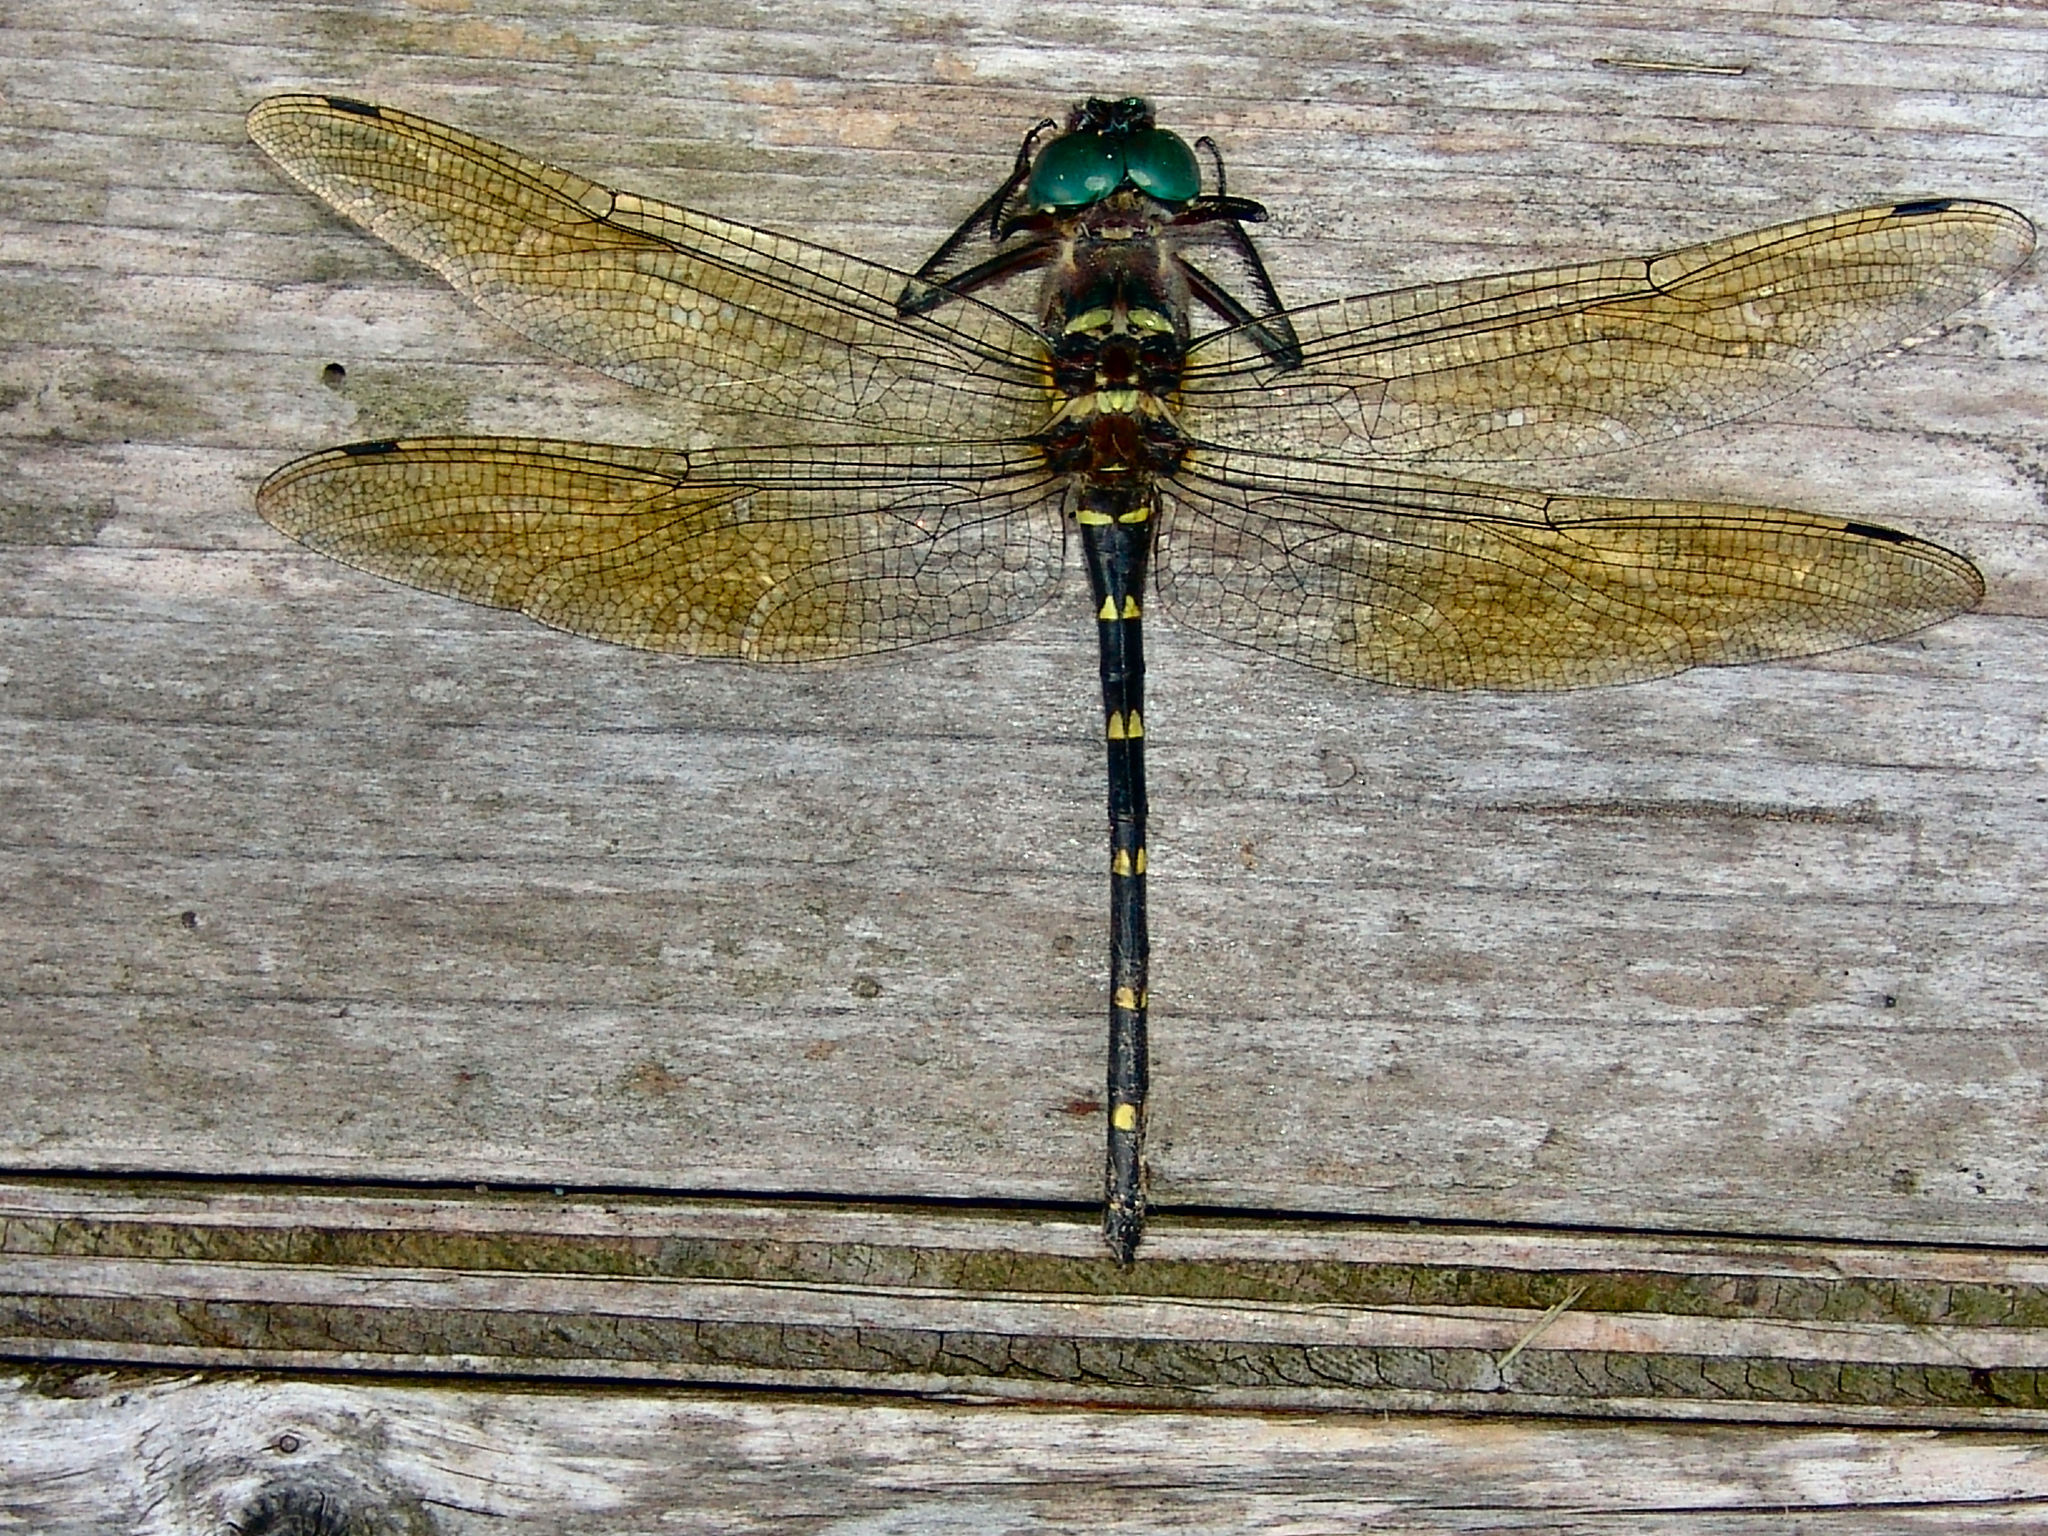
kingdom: Animalia
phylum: Arthropoda
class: Insecta
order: Odonata
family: Macromiidae
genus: Macromia
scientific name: Macromia taeniolata
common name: Royal river cruiser
